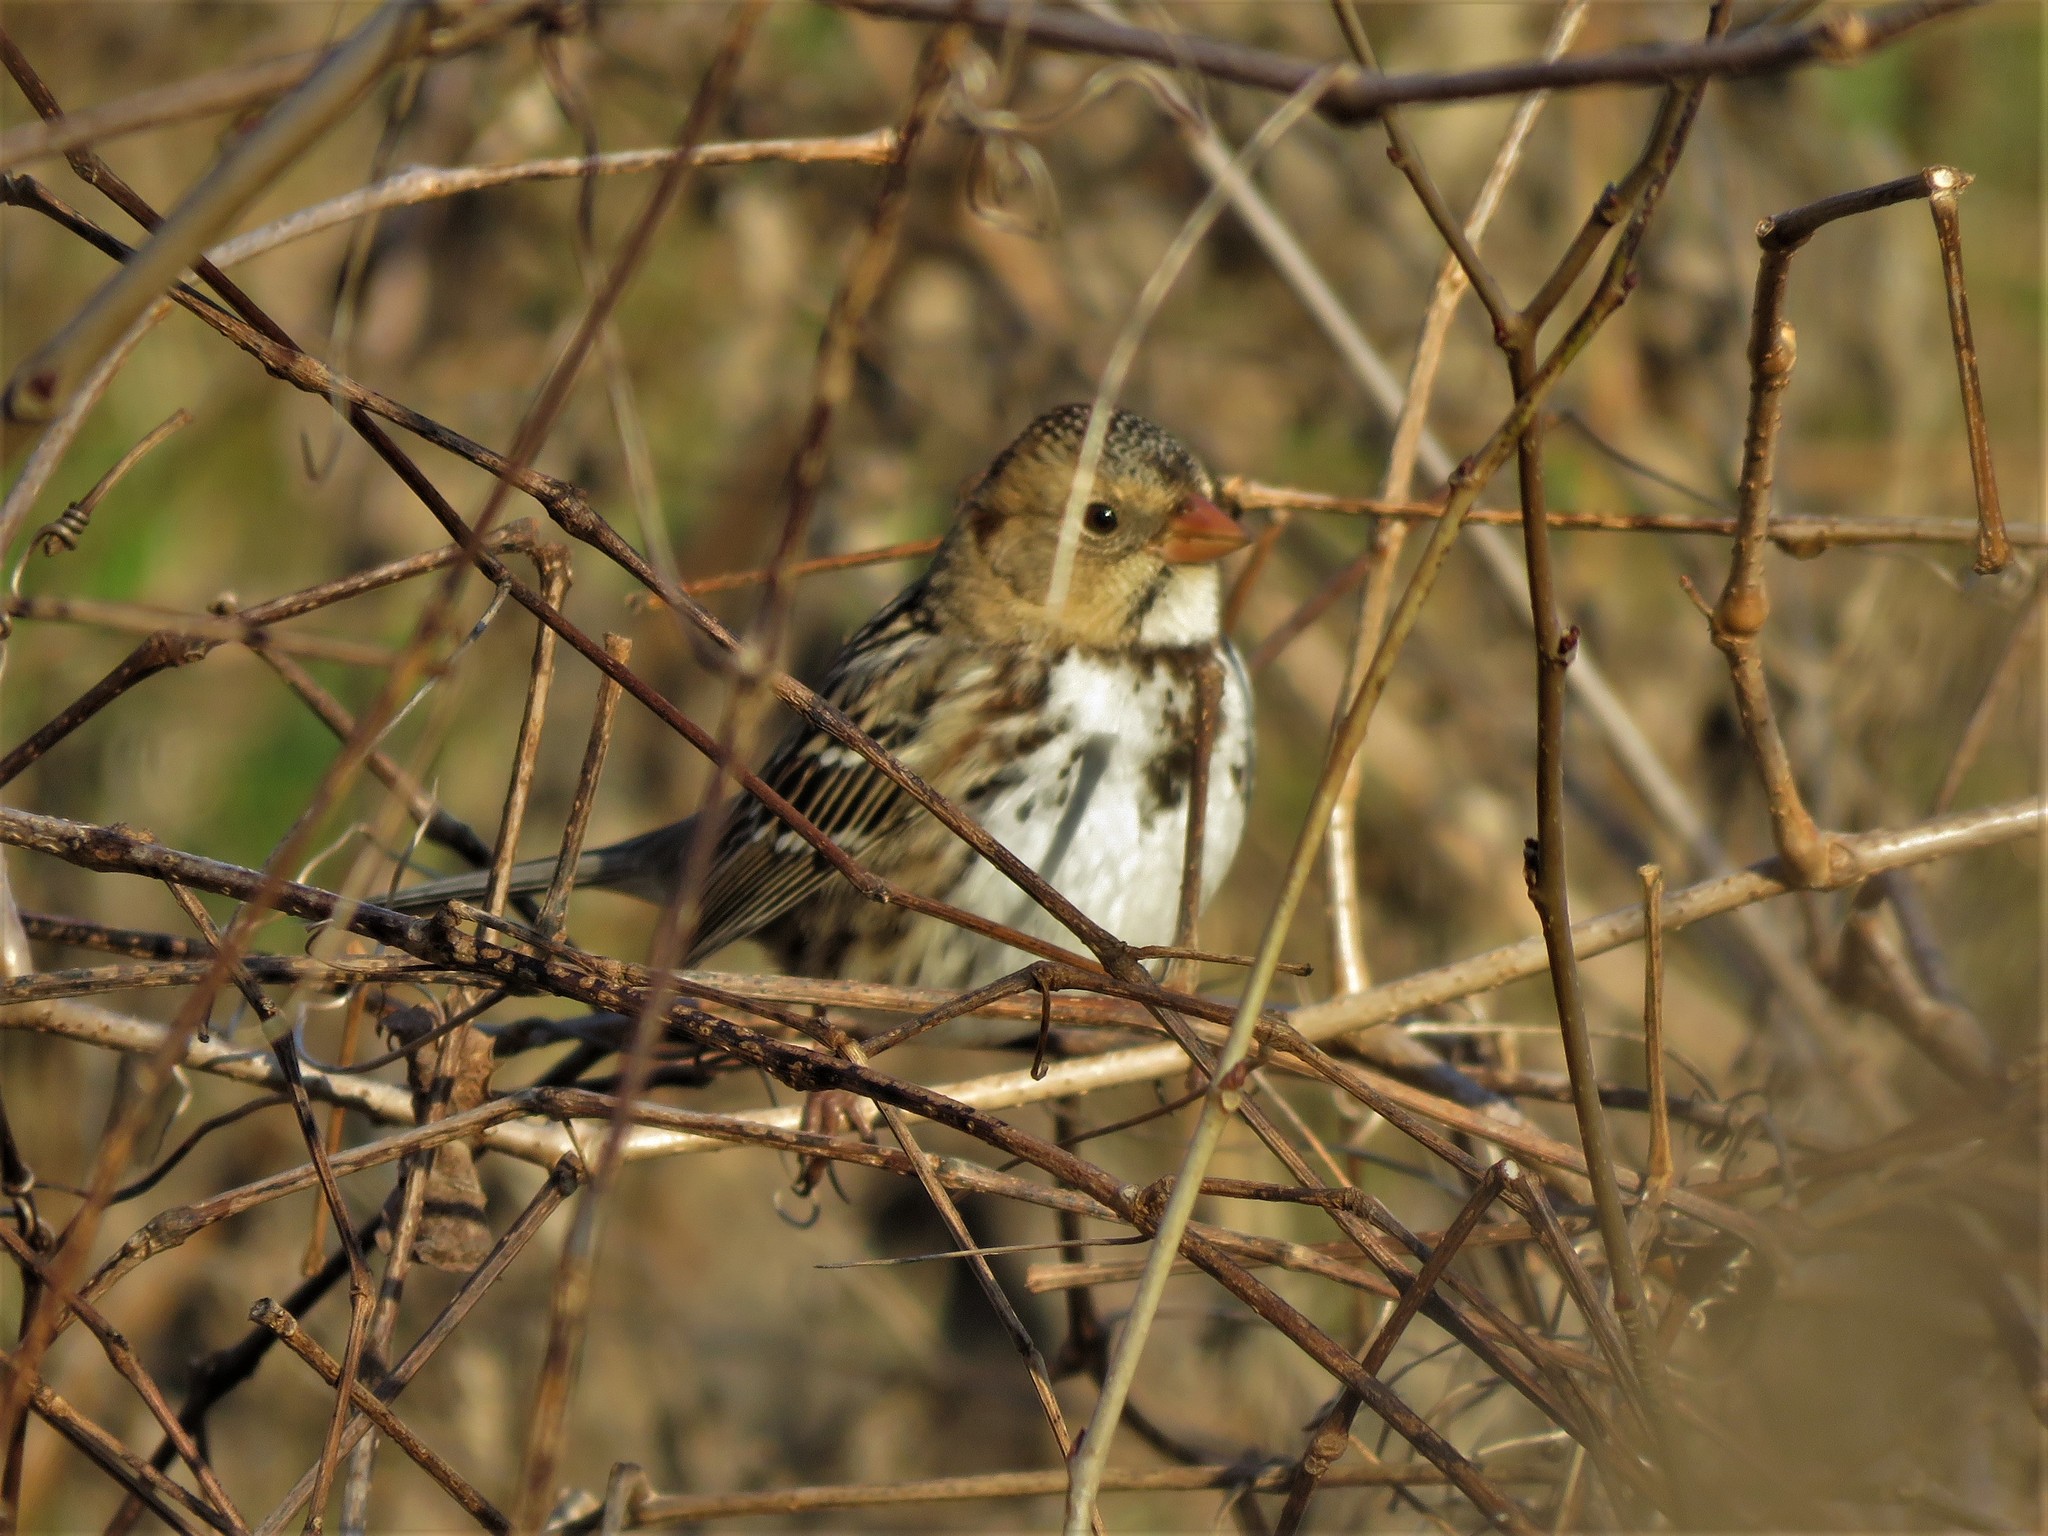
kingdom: Animalia
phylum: Chordata
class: Aves
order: Passeriformes
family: Passerellidae
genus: Zonotrichia
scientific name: Zonotrichia querula
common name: Harris's sparrow
